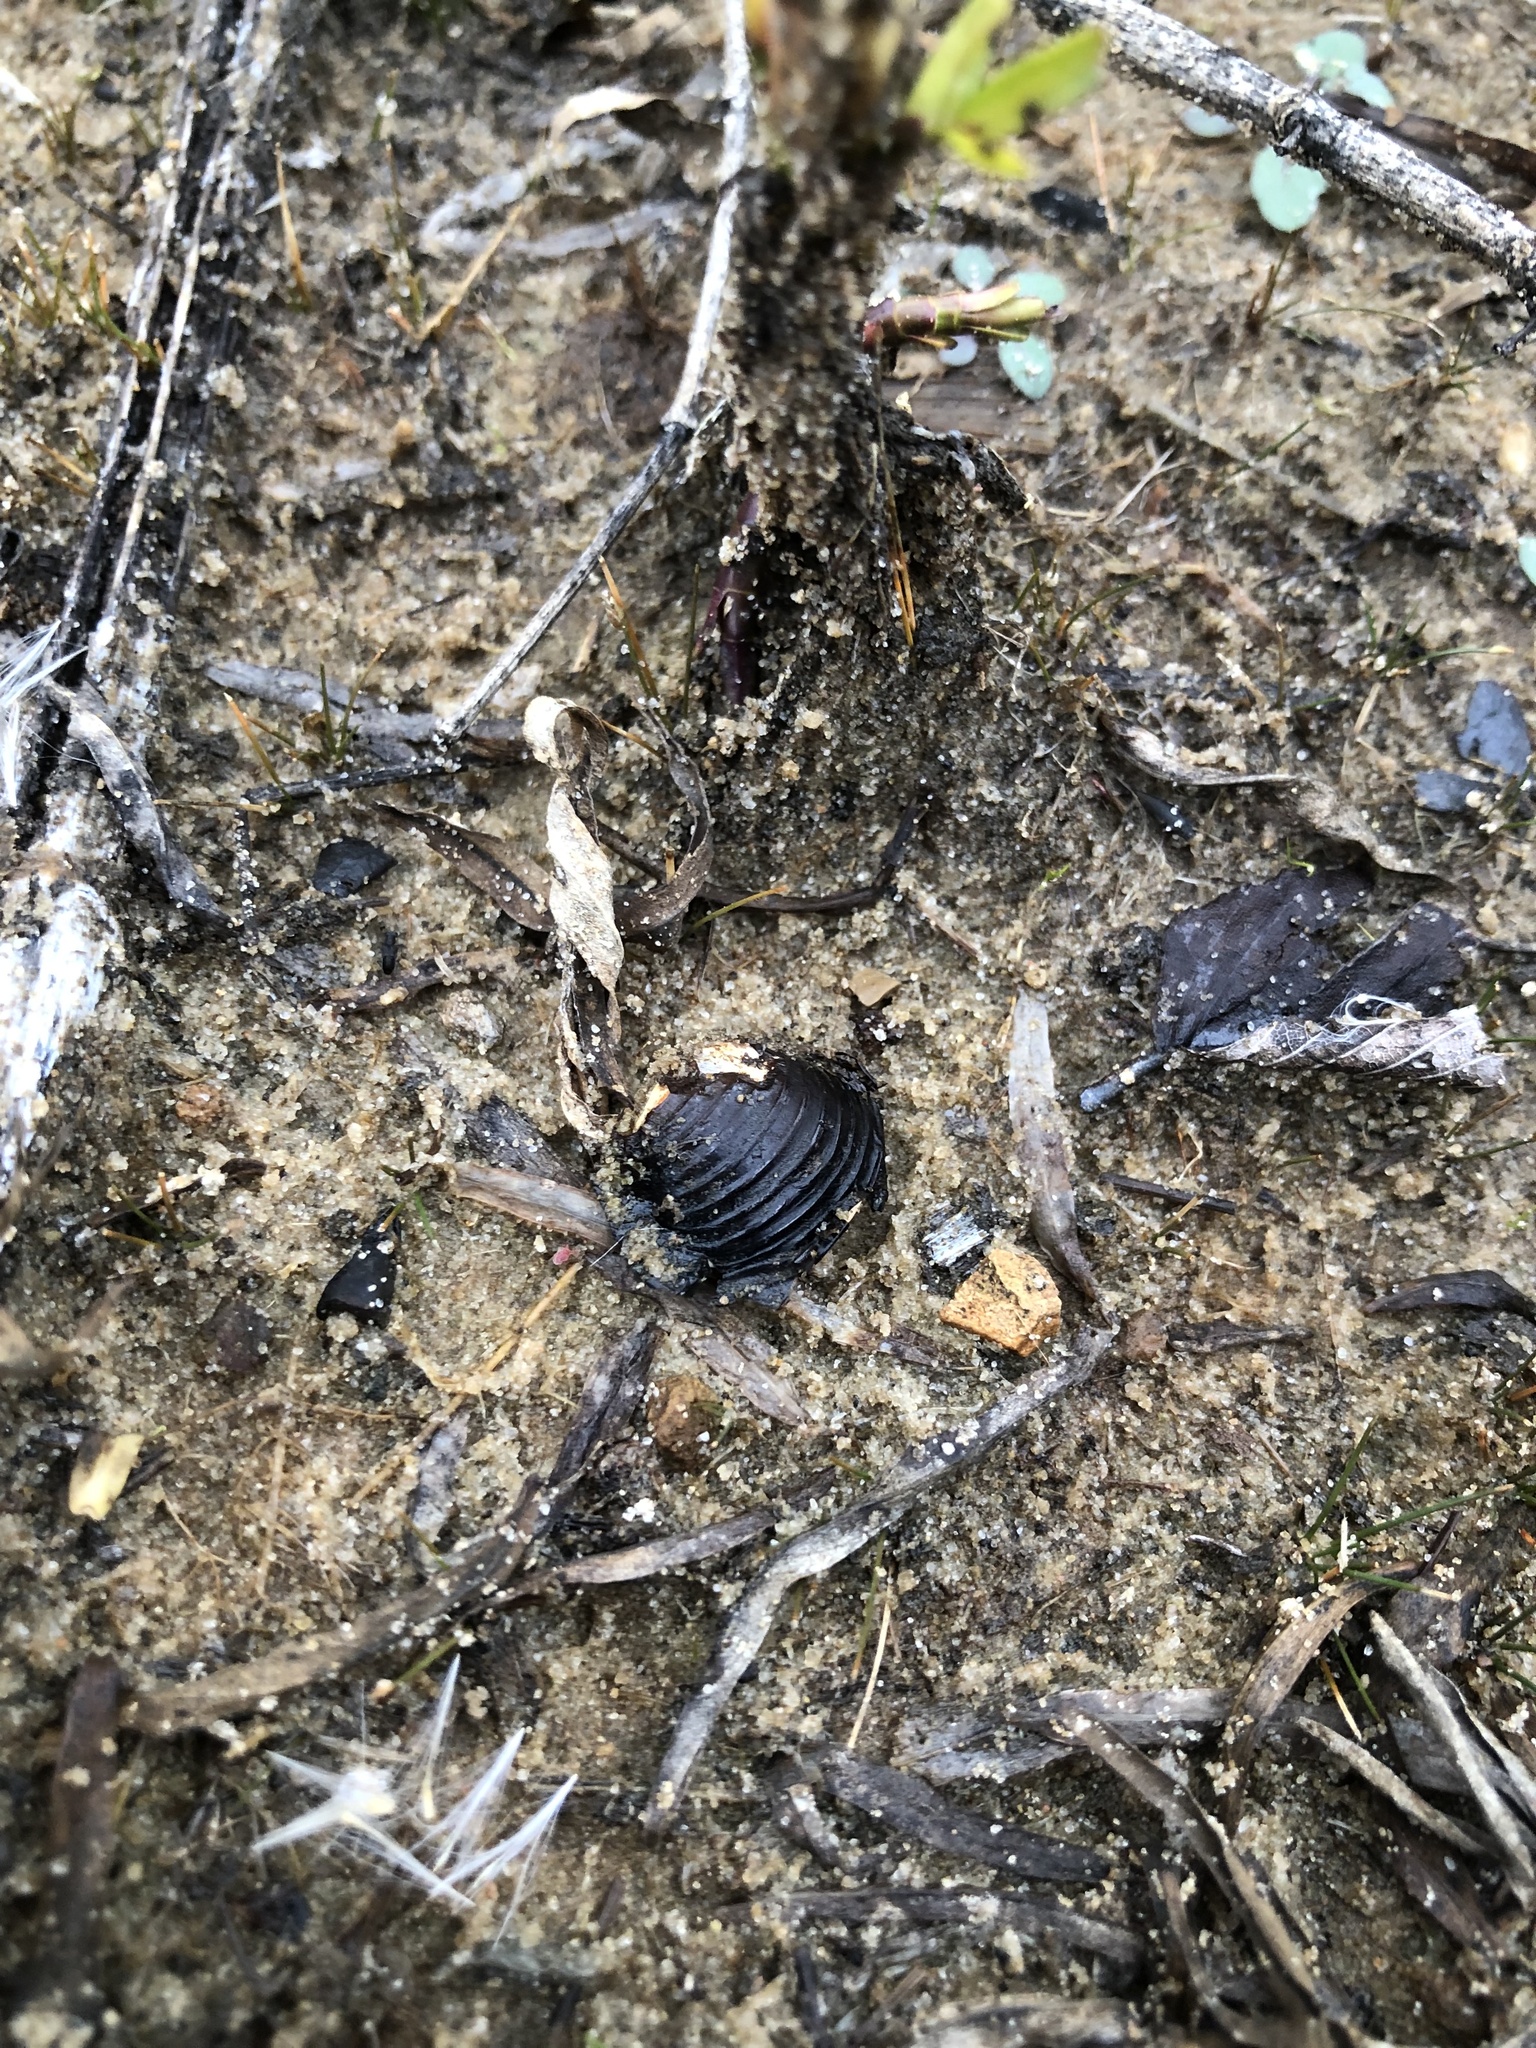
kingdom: Animalia
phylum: Mollusca
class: Bivalvia
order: Venerida
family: Cyrenidae
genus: Corbicula
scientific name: Corbicula fluminea
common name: Asian clam
